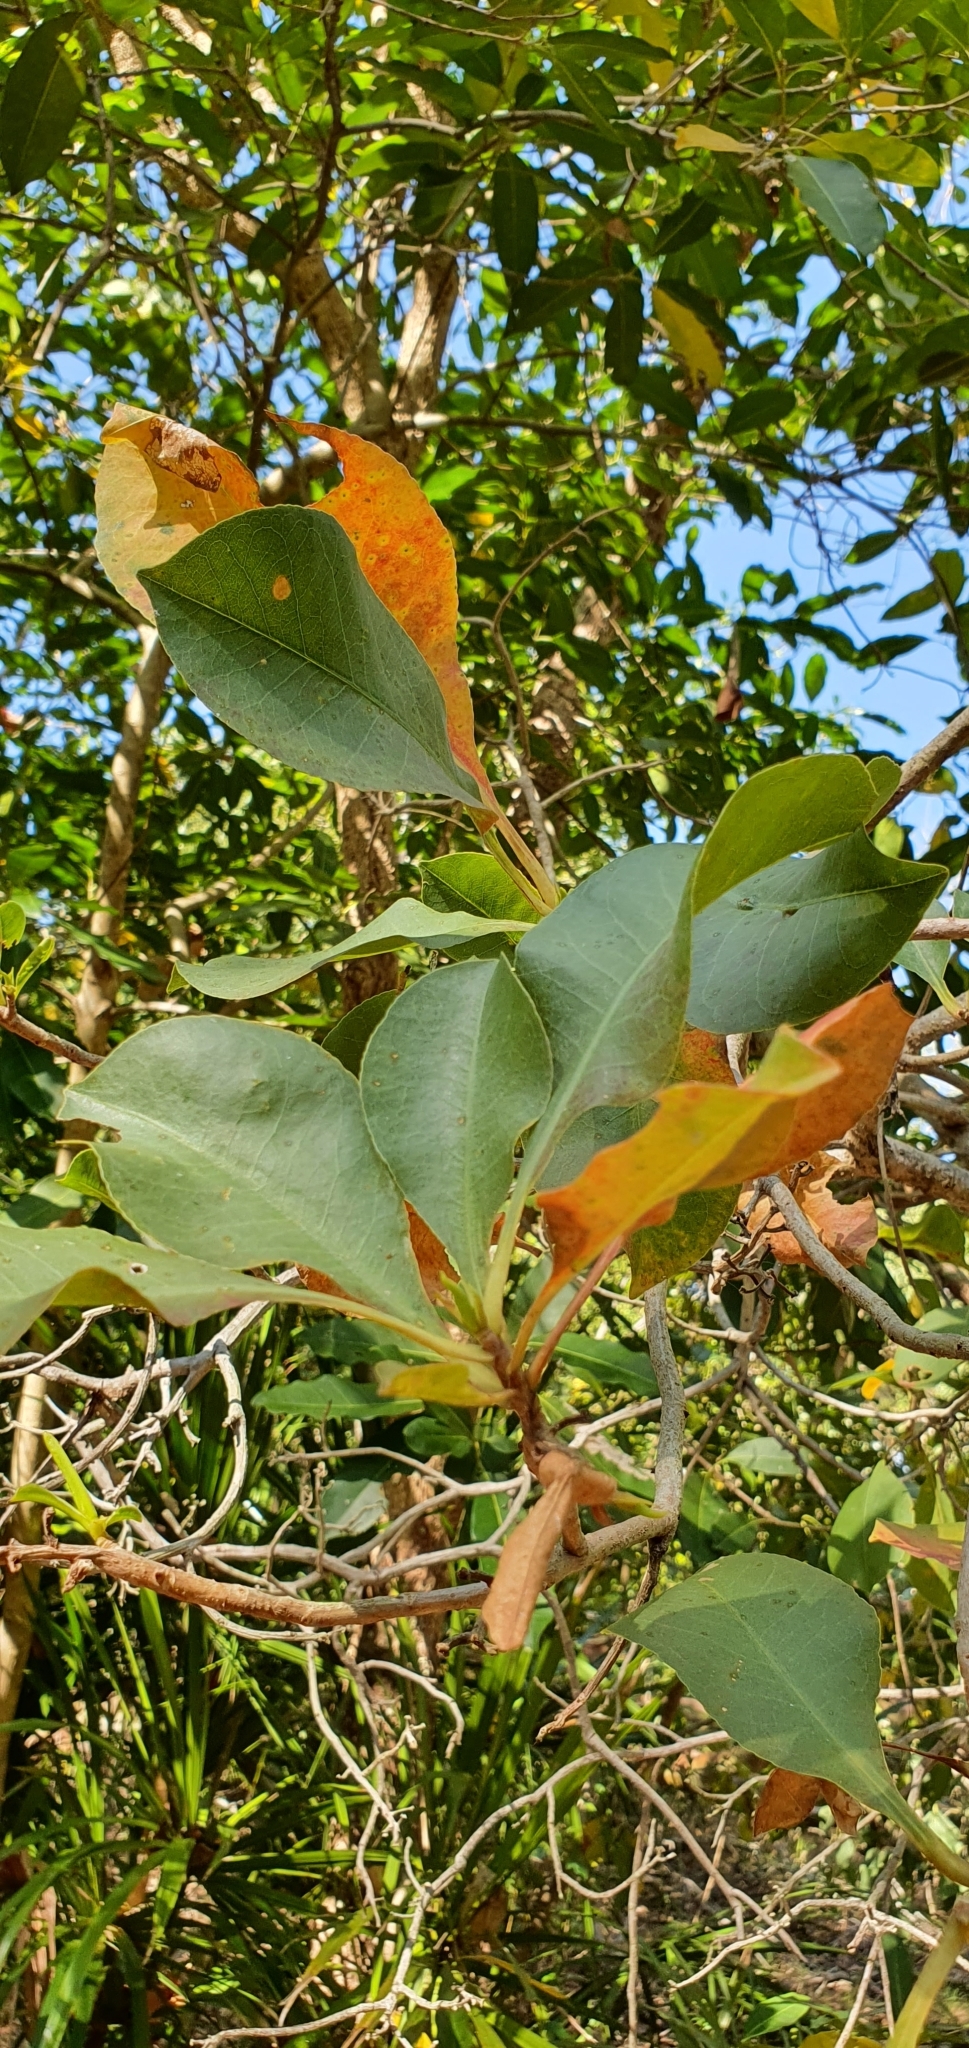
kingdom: Plantae
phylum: Tracheophyta
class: Magnoliopsida
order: Ericales
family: Lecythidaceae
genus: Planchonia
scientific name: Planchonia careya
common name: Cockatoo-apple
